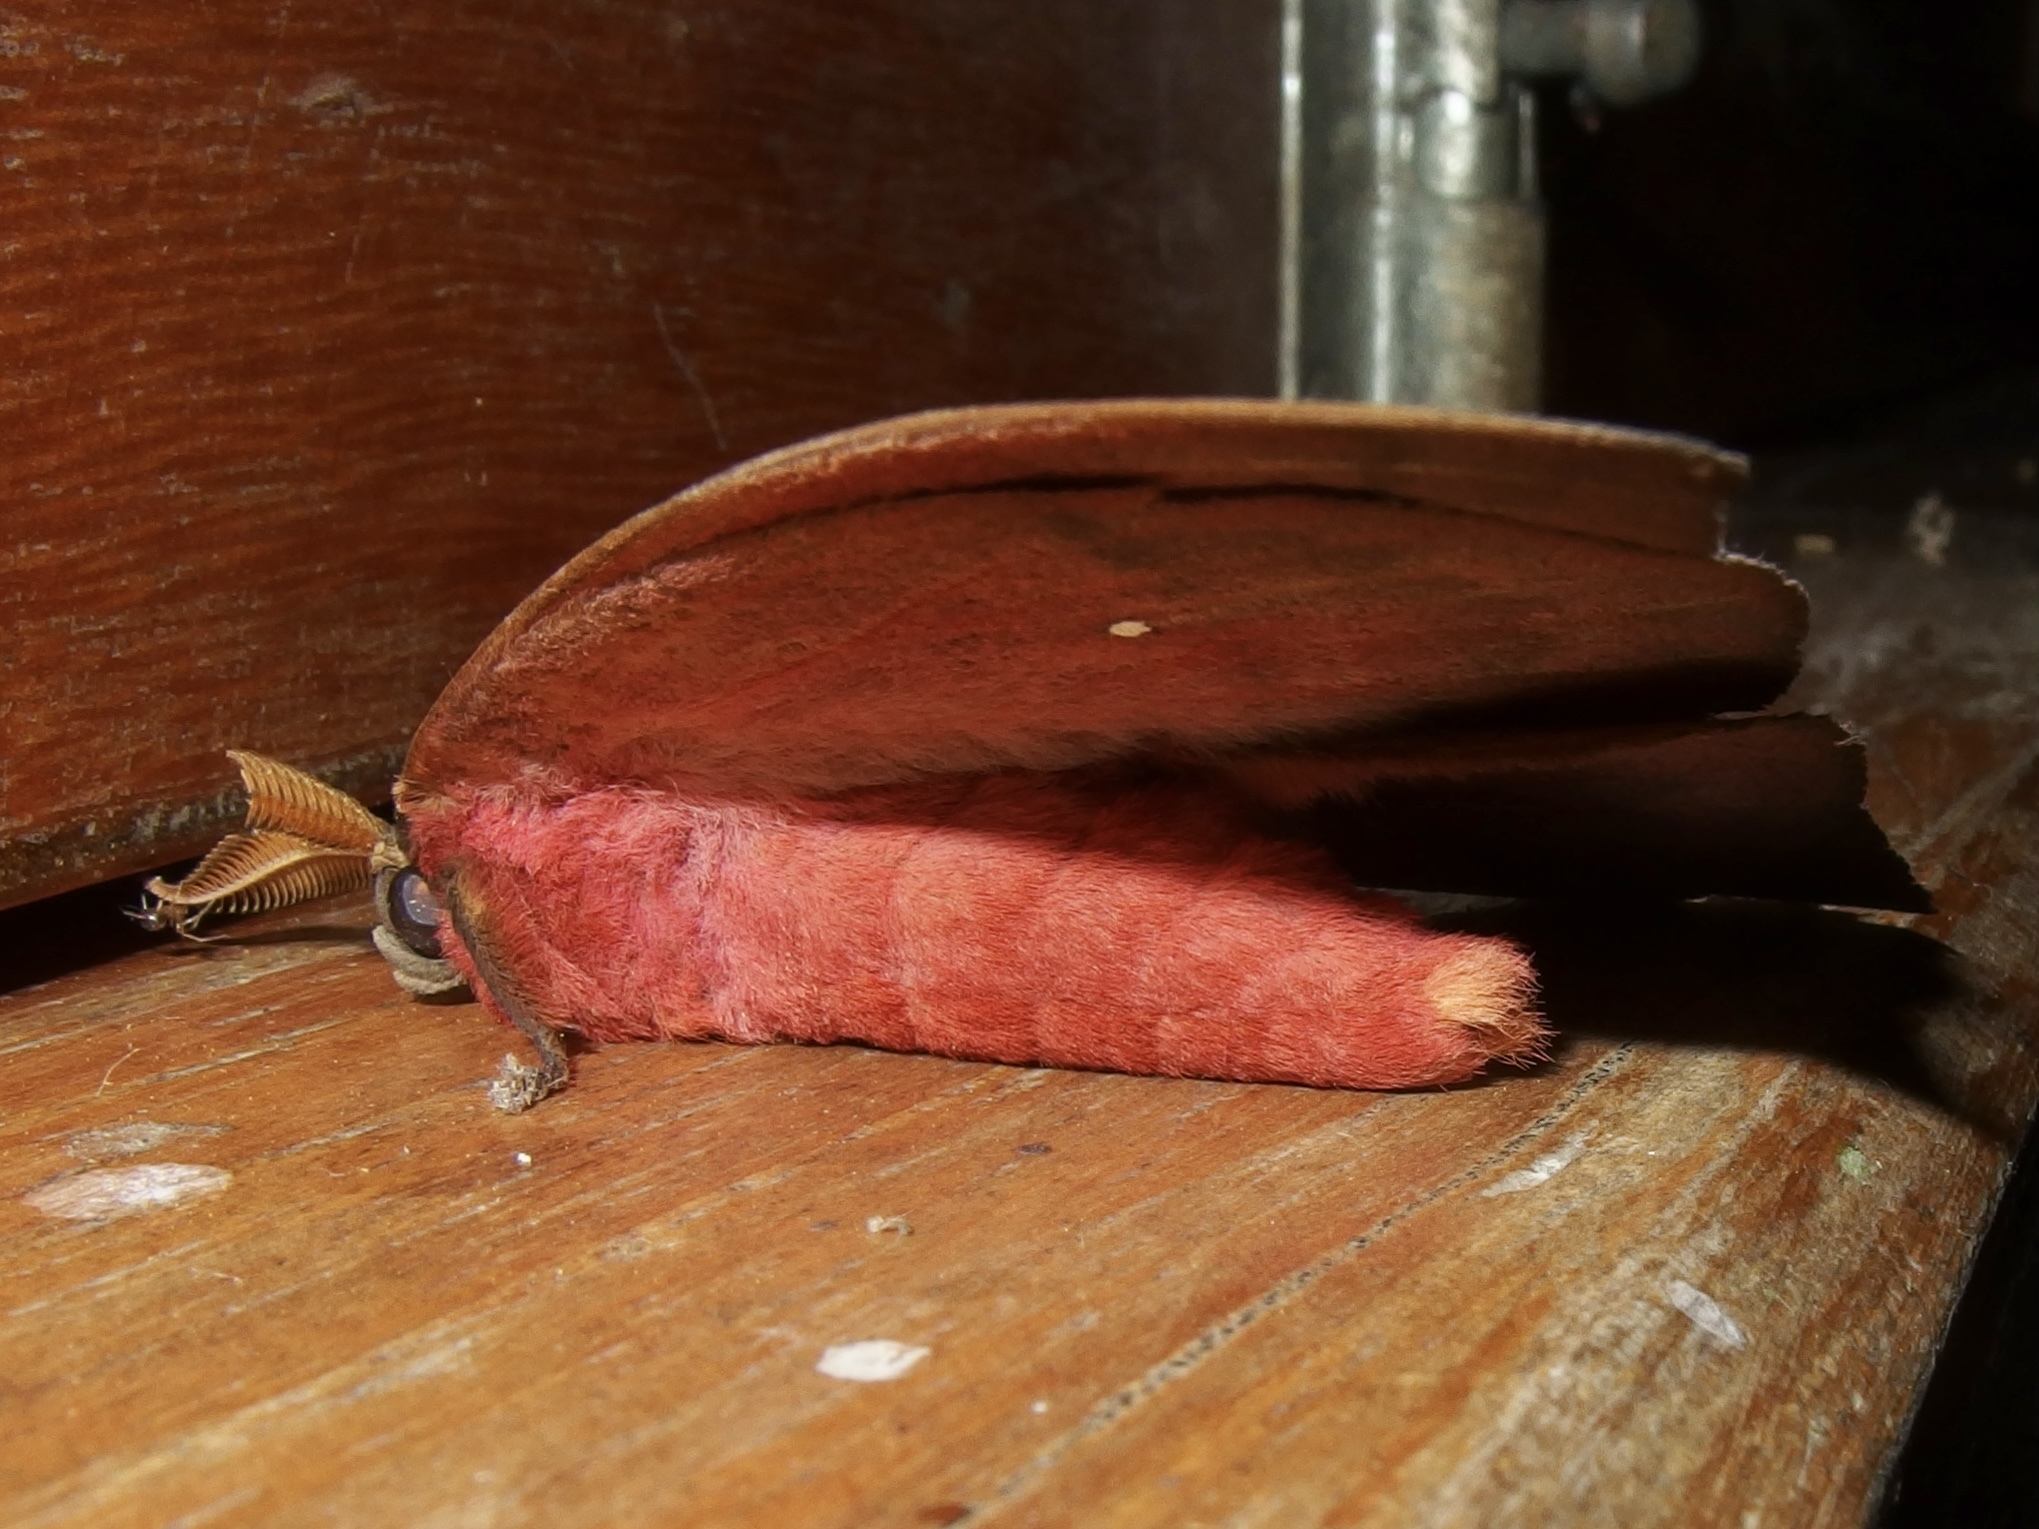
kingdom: Animalia
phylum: Arthropoda
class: Insecta
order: Lepidoptera
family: Saturniidae
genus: Automeris
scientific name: Automeris zaruma
